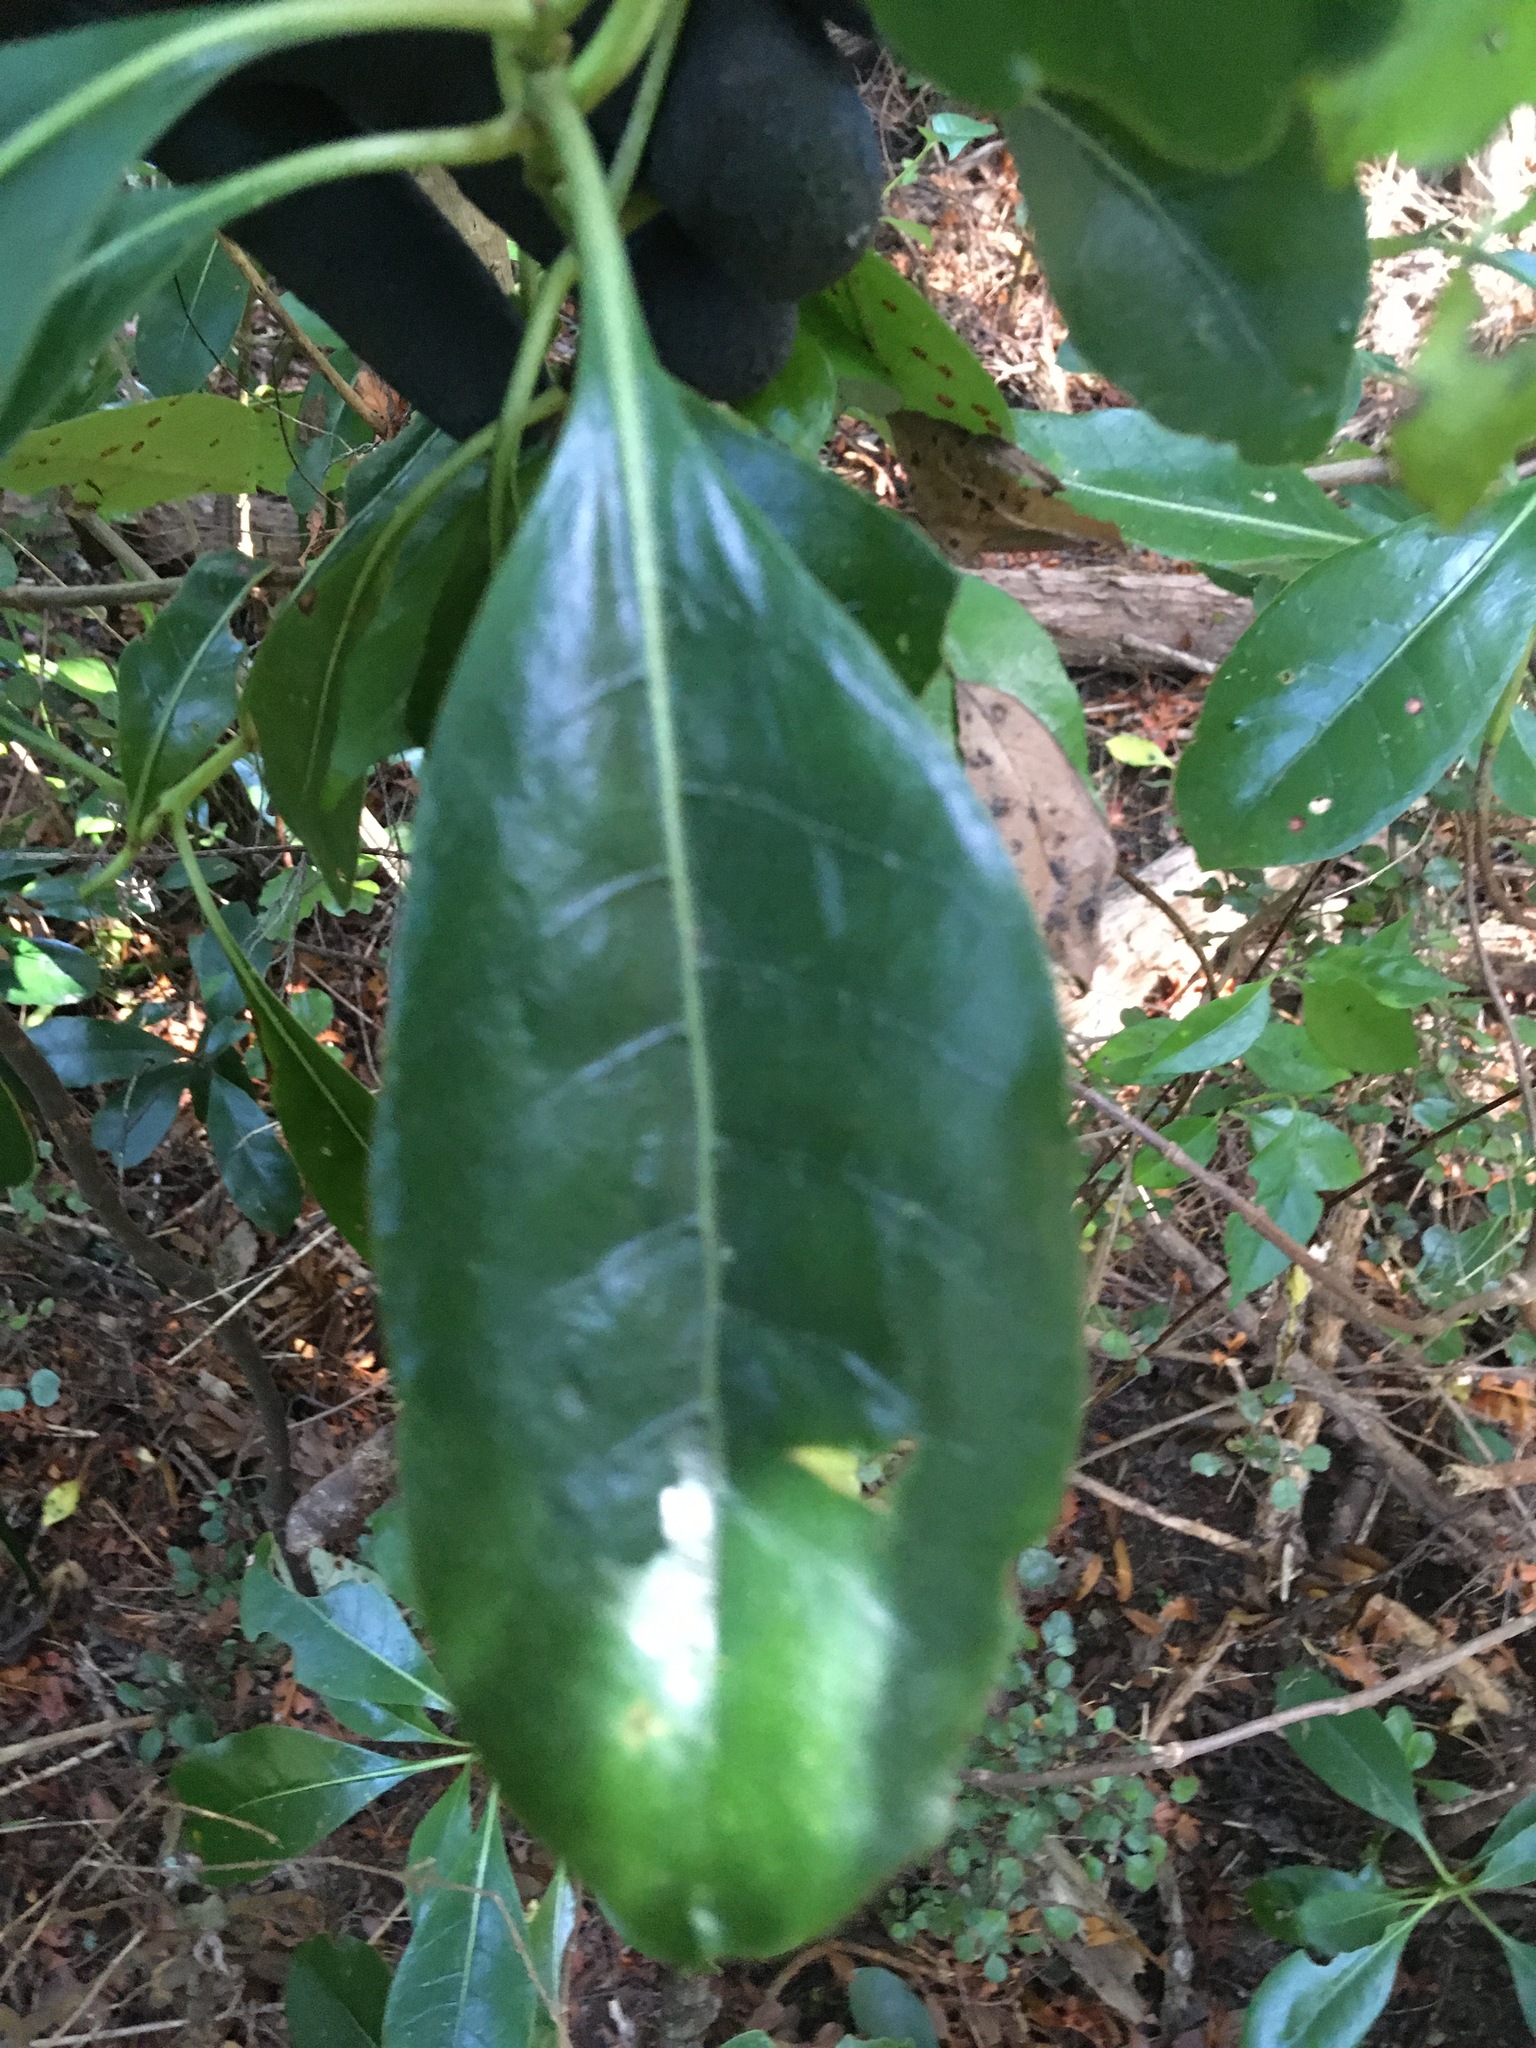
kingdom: Plantae
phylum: Tracheophyta
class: Magnoliopsida
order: Gentianales
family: Rubiaceae
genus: Coprosma
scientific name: Coprosma lucida
